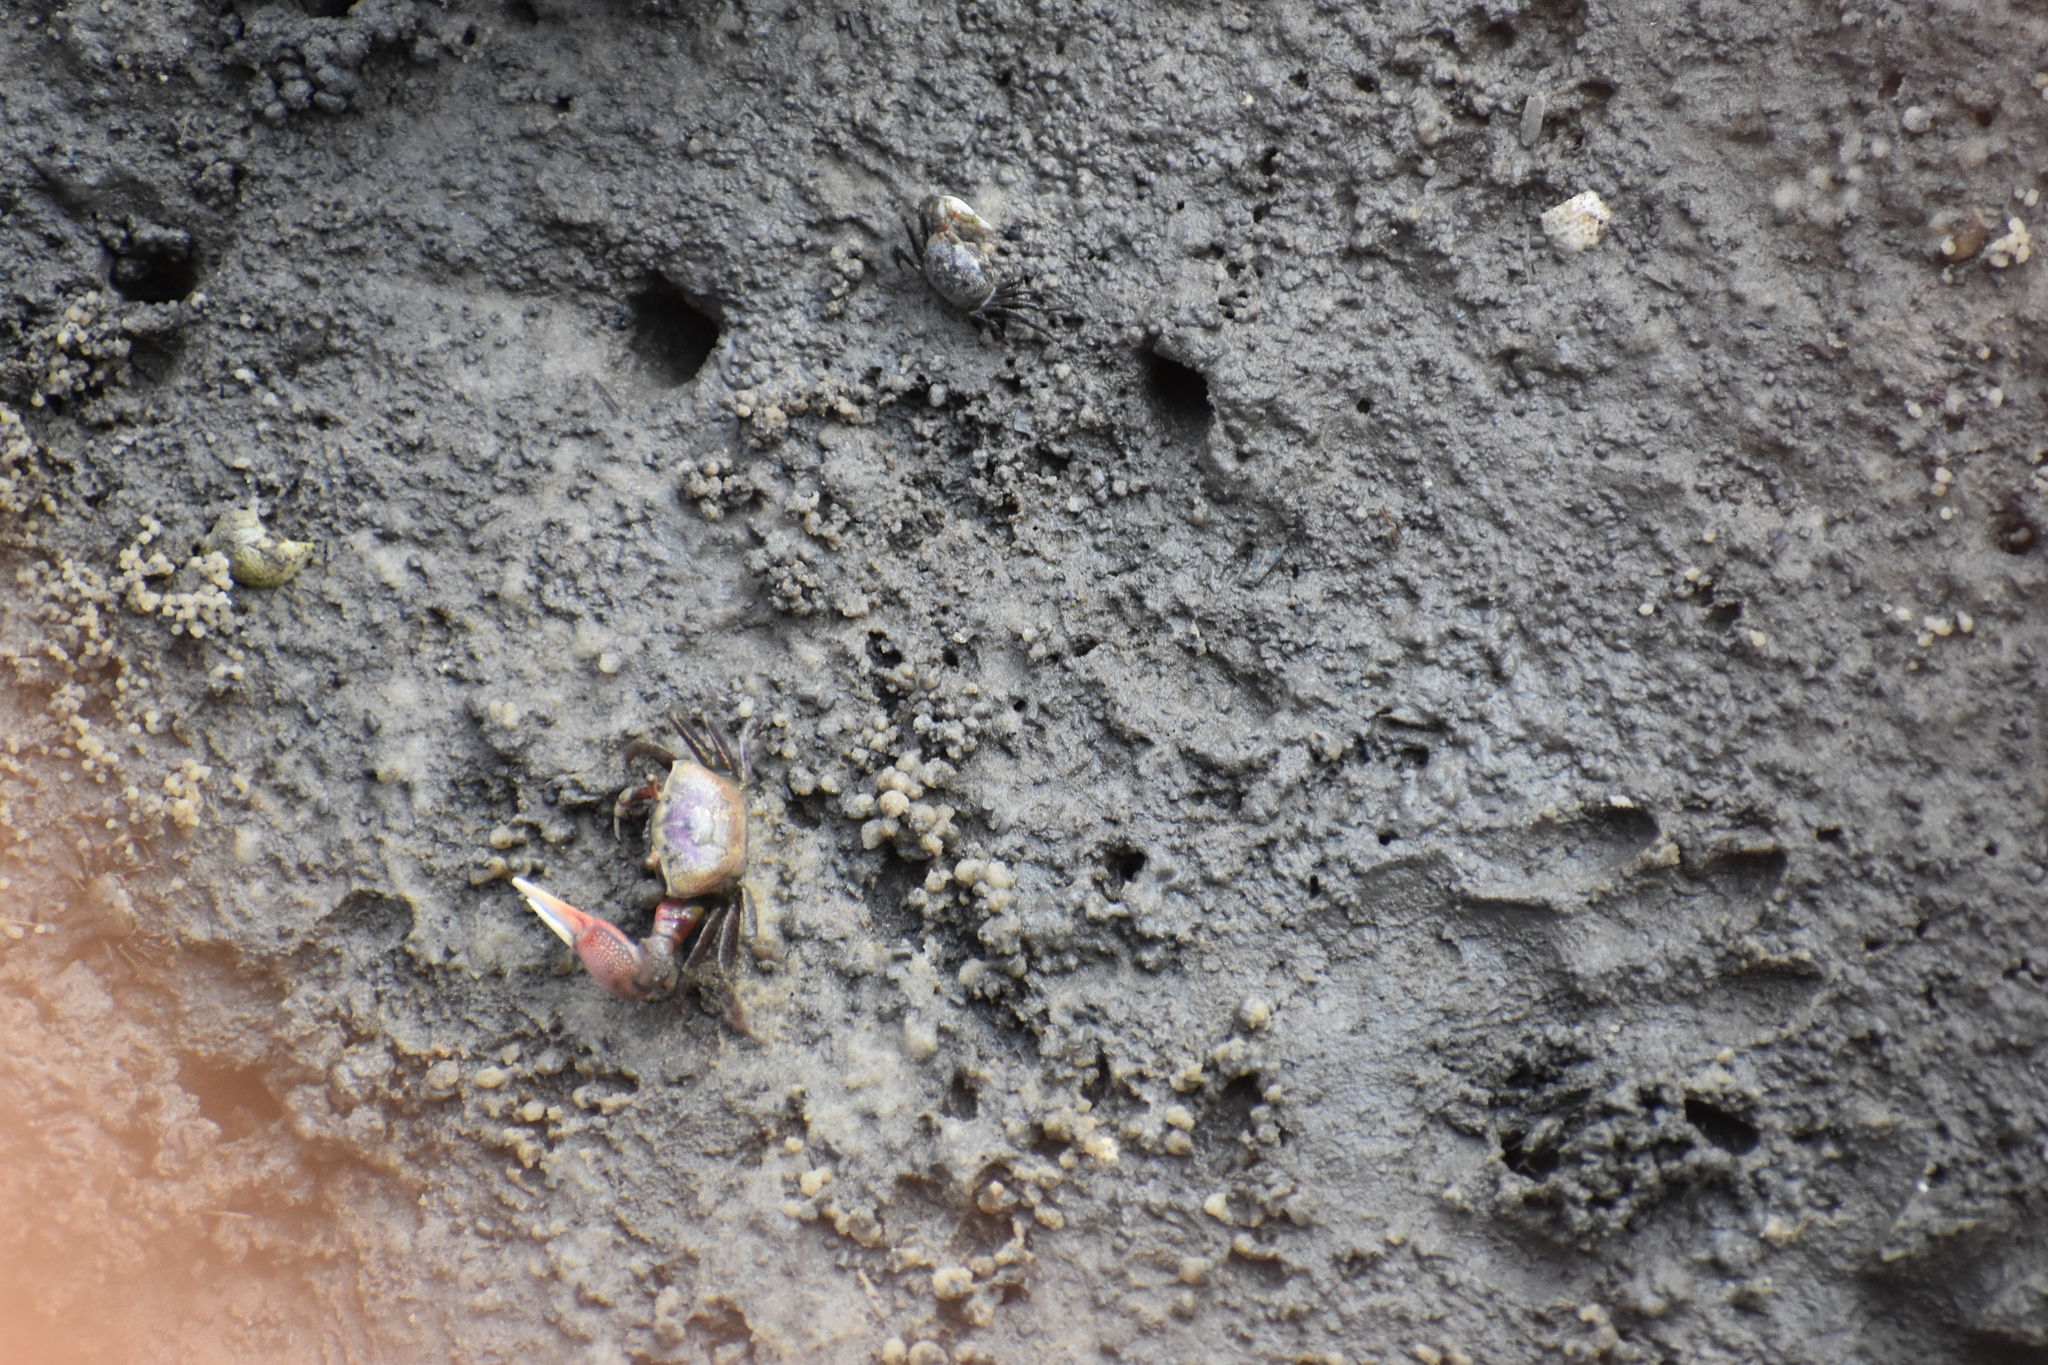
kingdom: Animalia
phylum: Chordata
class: Mammalia
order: Carnivora
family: Procyonidae
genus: Procyon
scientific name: Procyon lotor
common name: Raccoon
